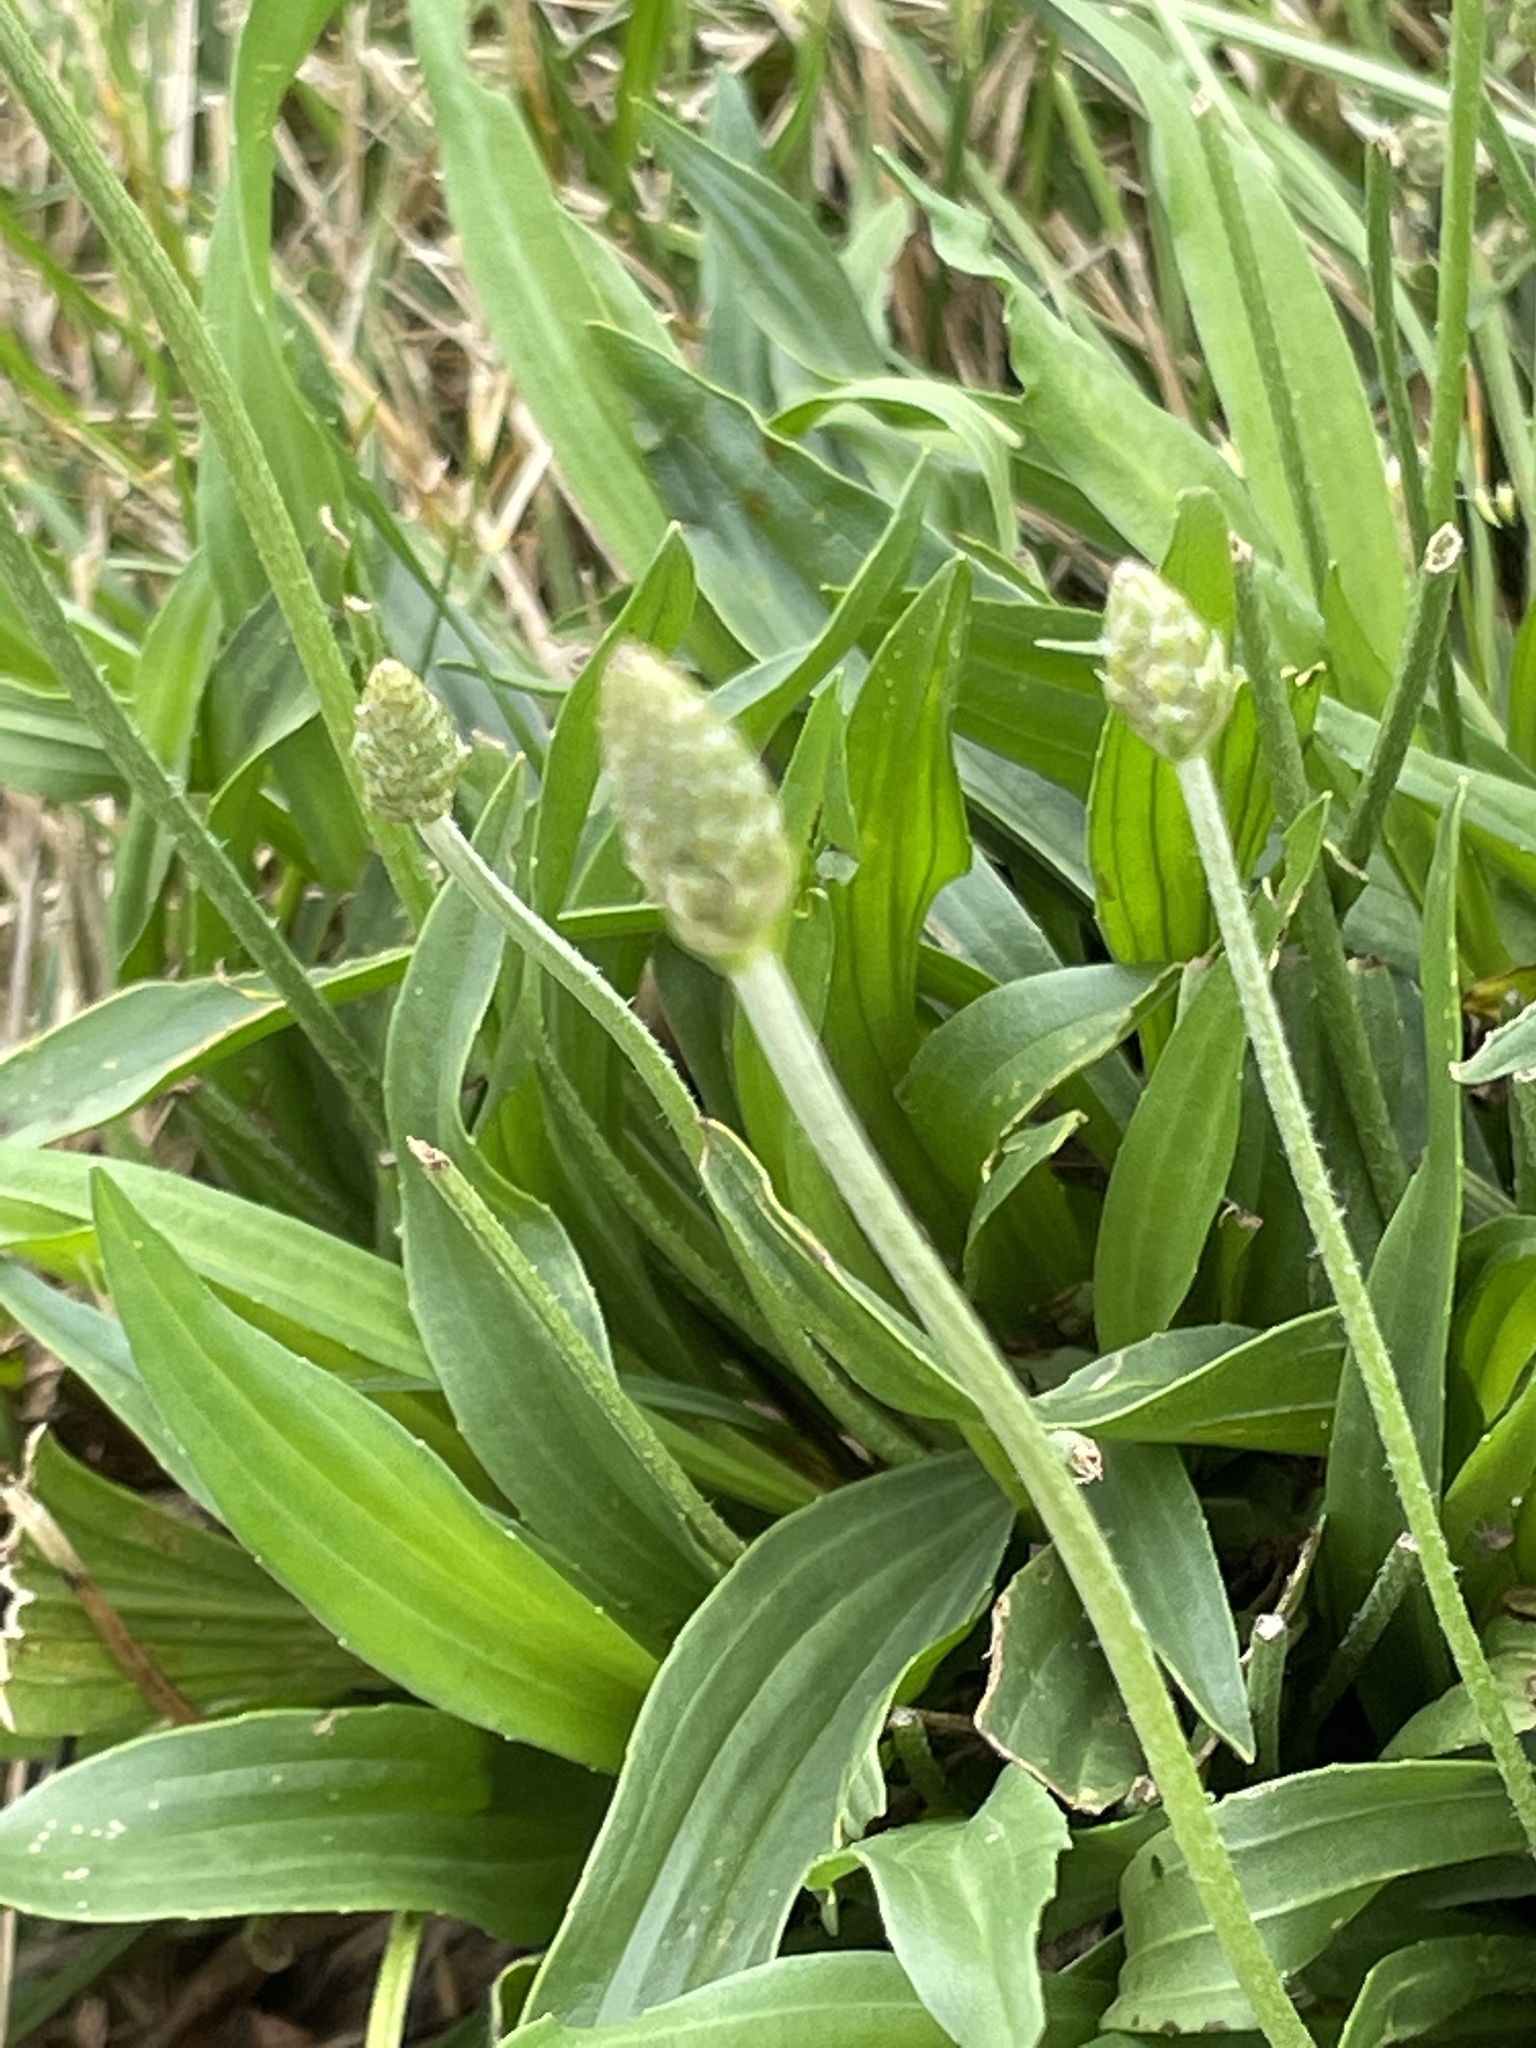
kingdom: Plantae
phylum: Tracheophyta
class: Magnoliopsida
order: Lamiales
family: Plantaginaceae
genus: Plantago
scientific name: Plantago lanceolata
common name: Ribwort plantain
